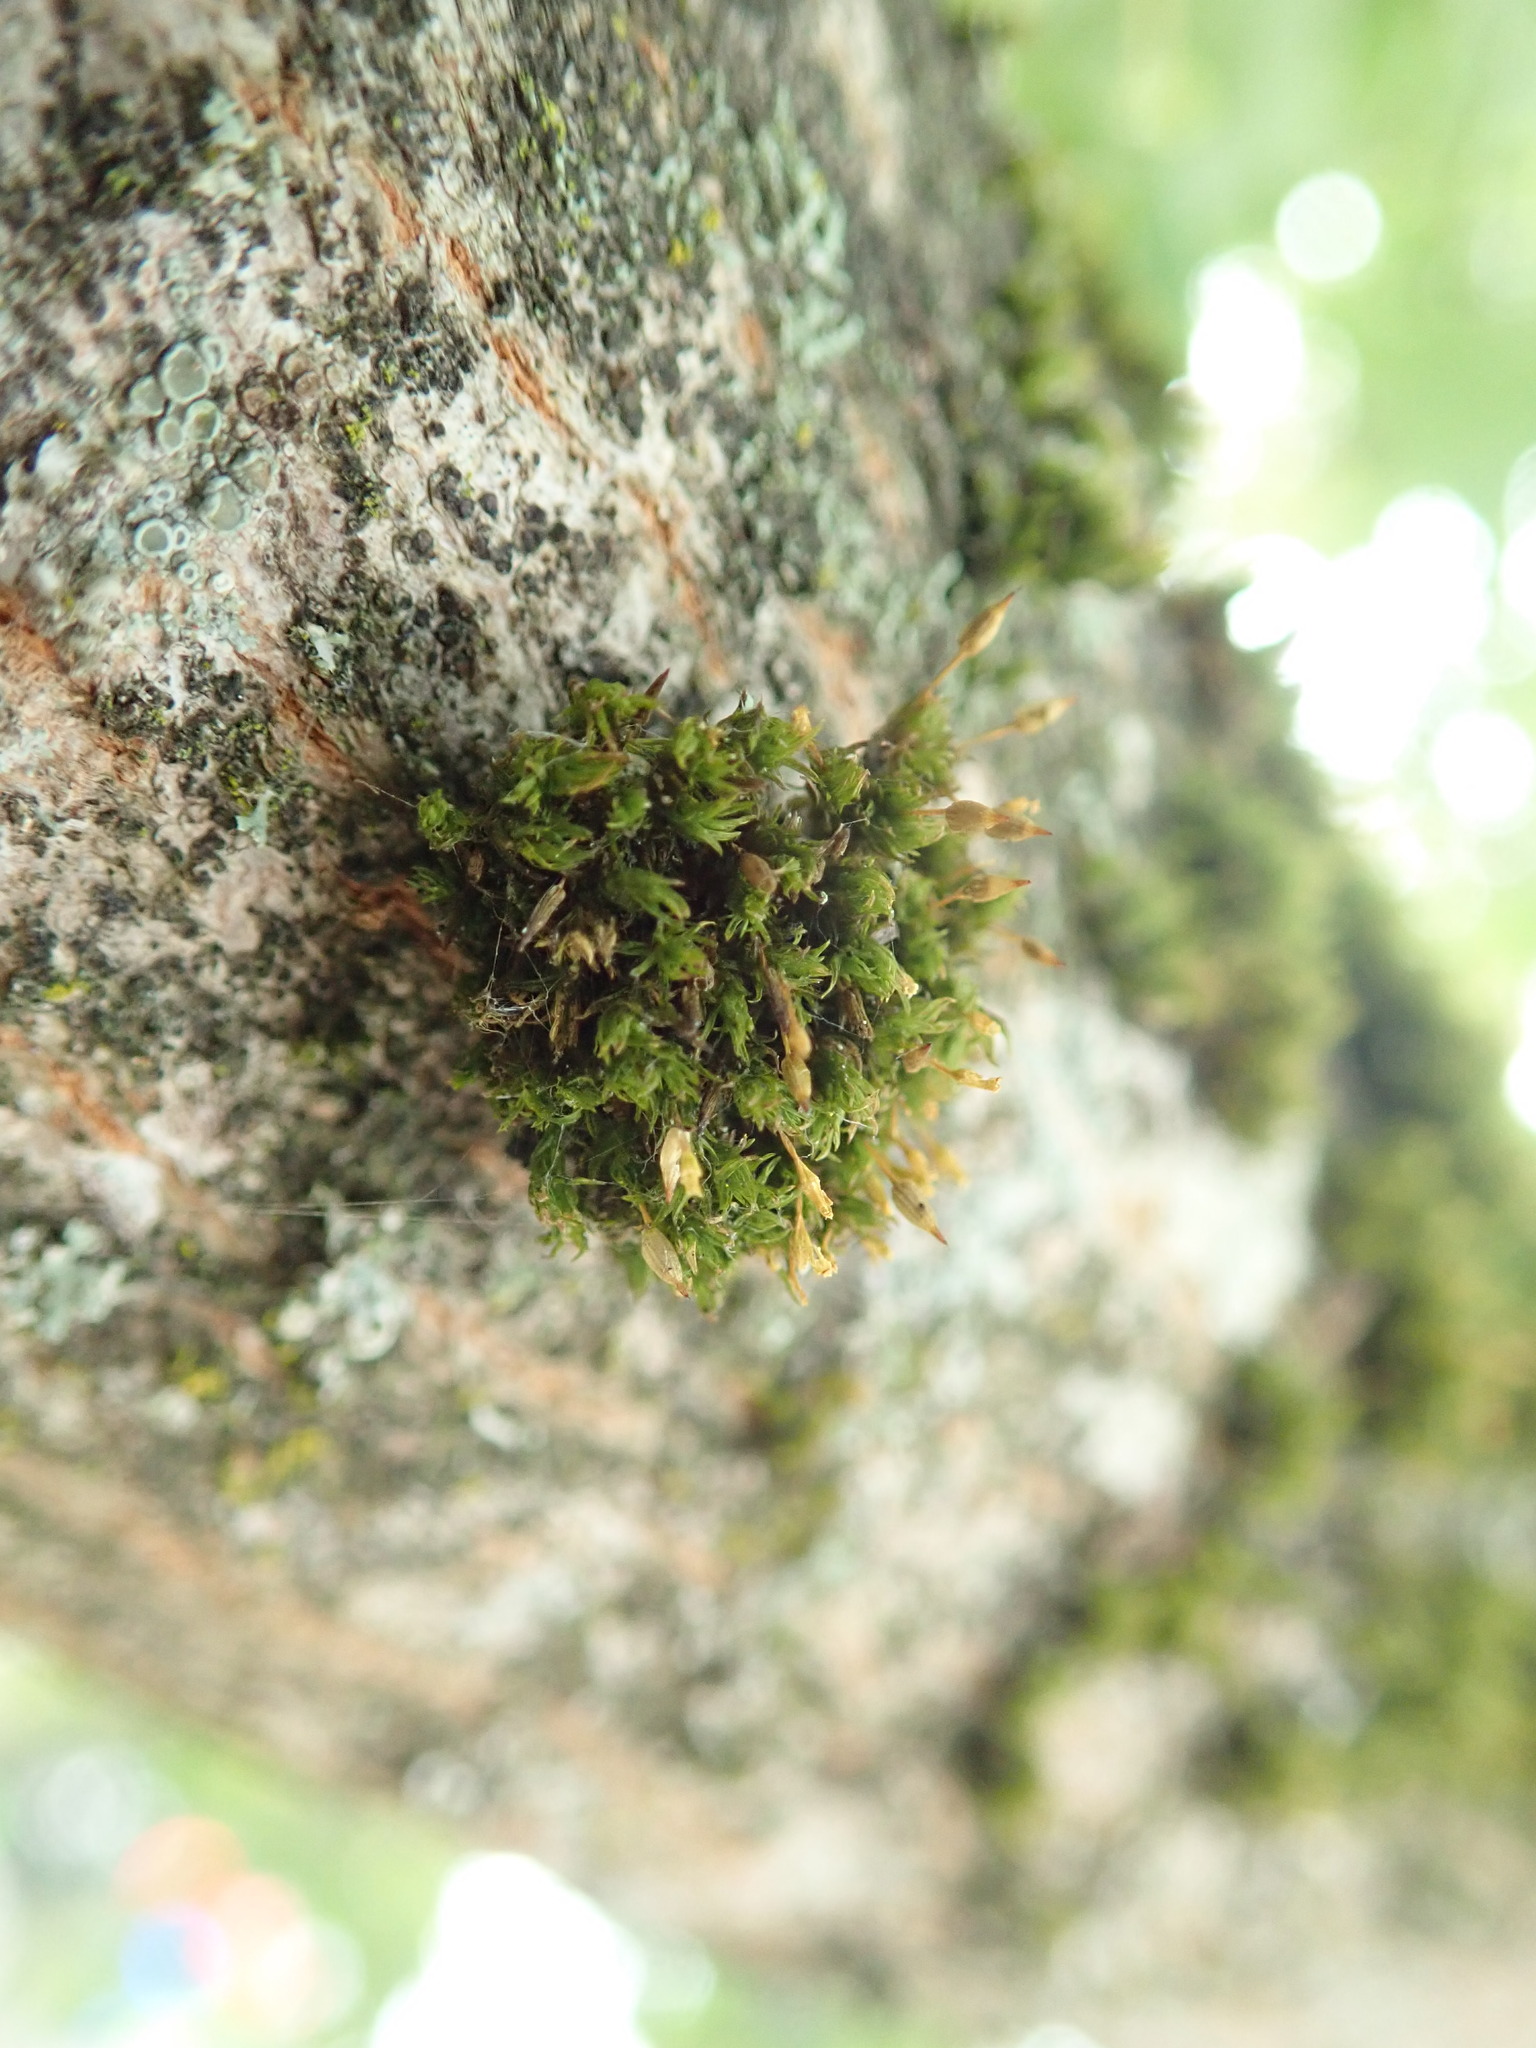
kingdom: Plantae
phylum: Bryophyta
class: Bryopsida
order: Orthotrichales
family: Orthotrichaceae
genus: Lewinskya
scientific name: Lewinskya speciosa
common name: Showy bristle moss
